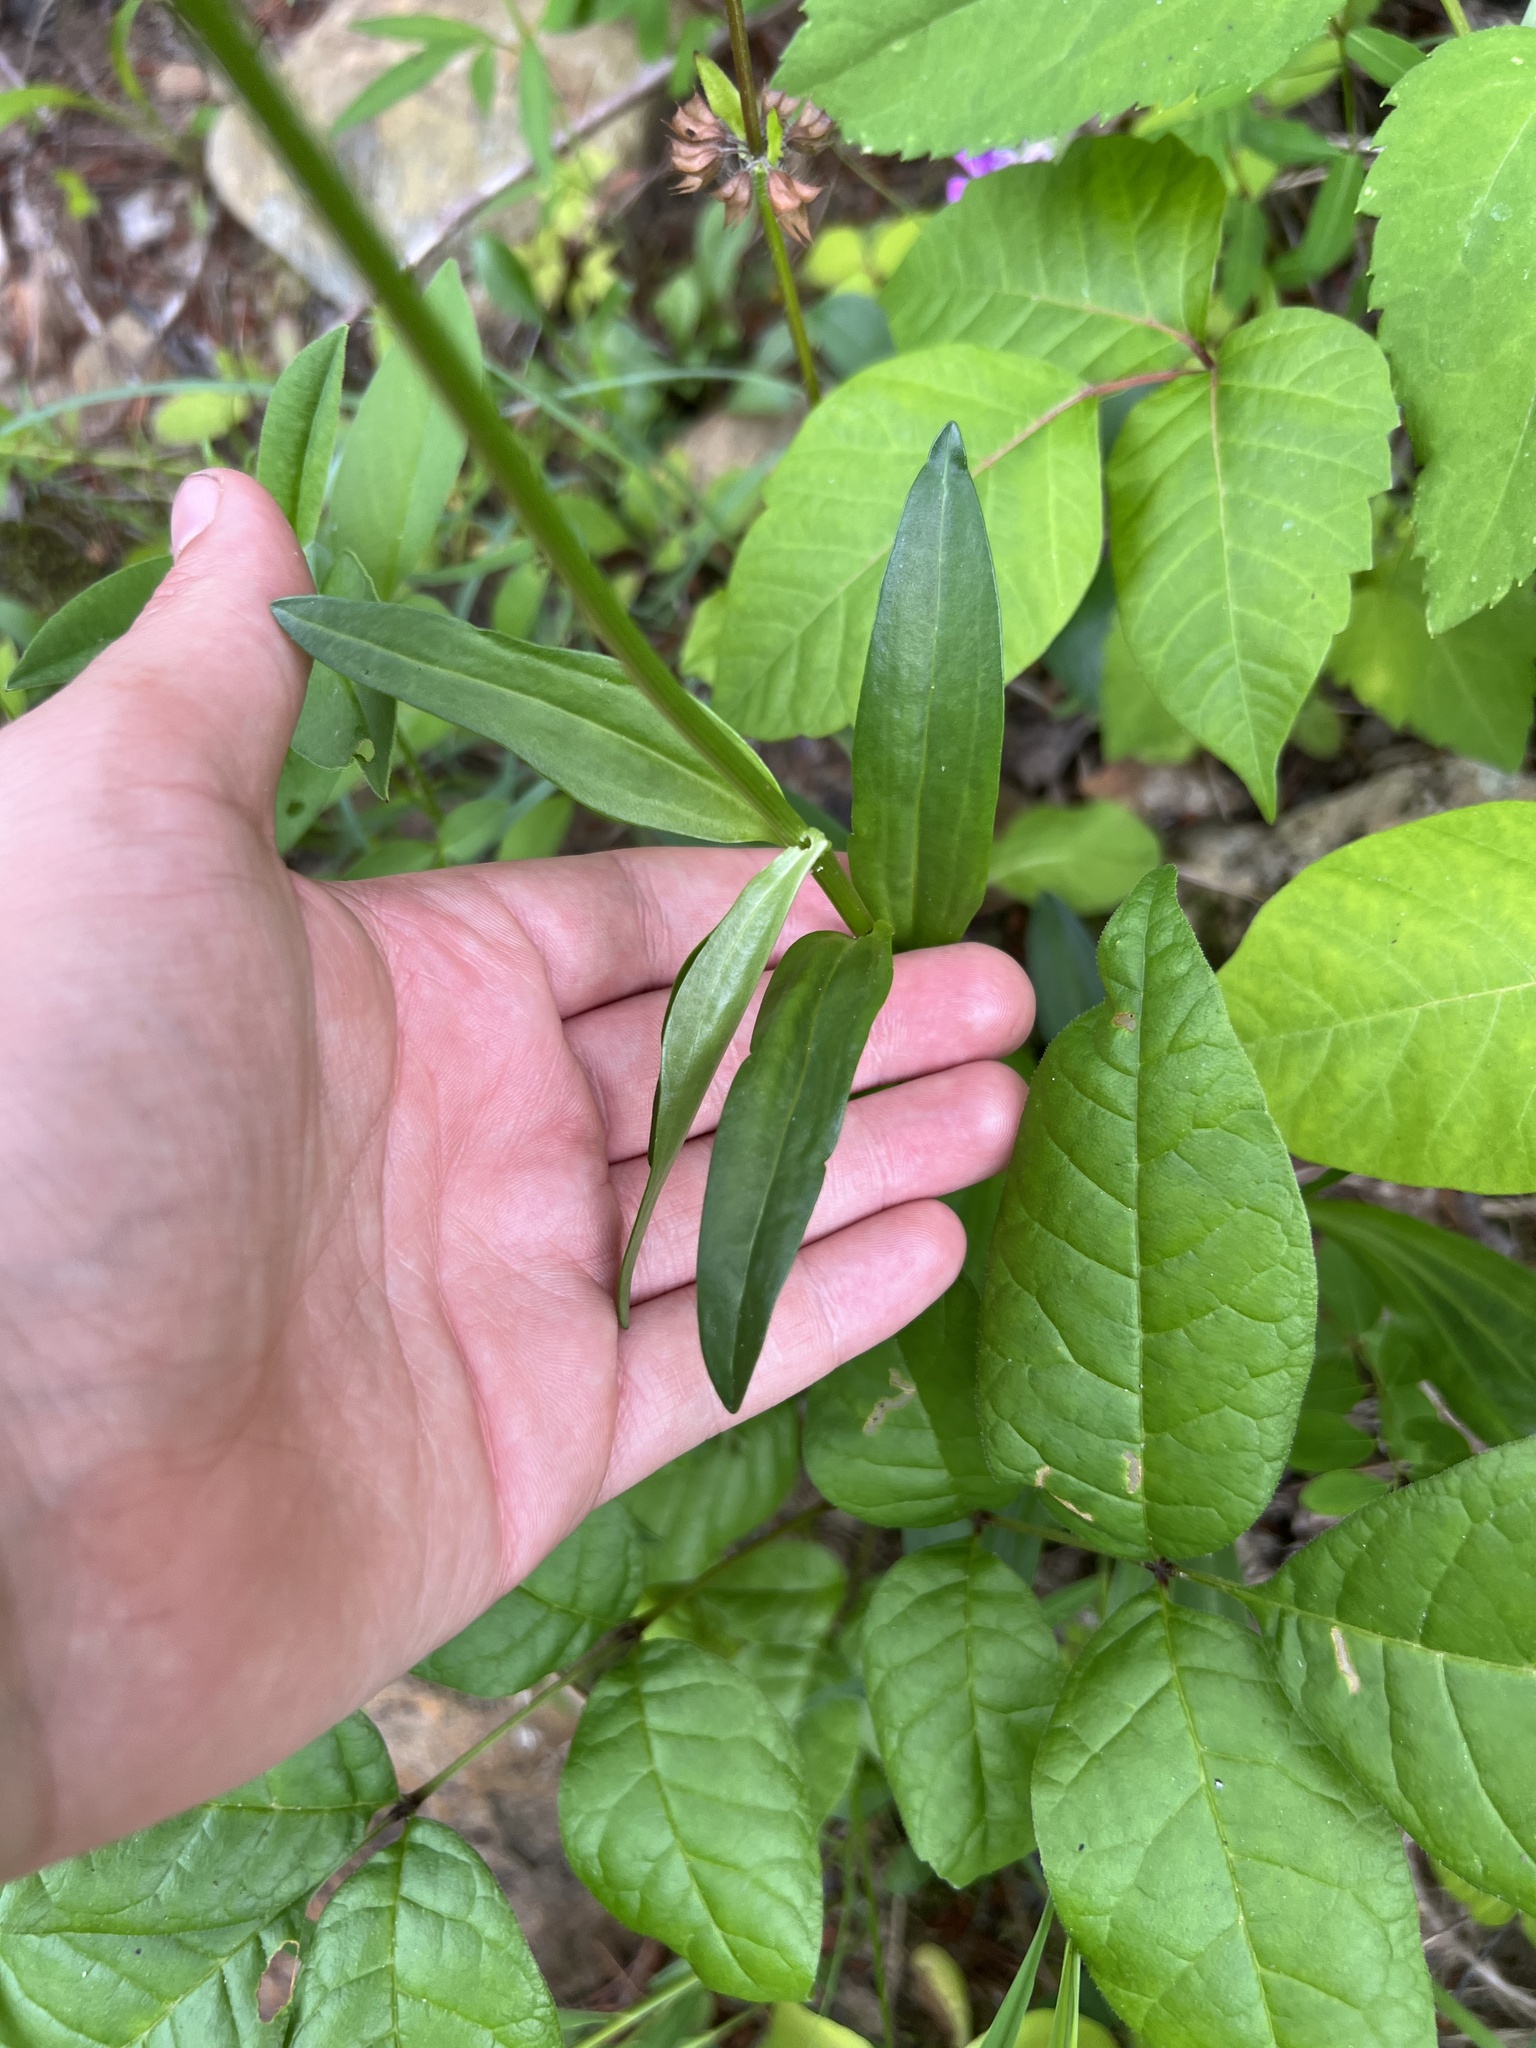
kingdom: Plantae
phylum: Tracheophyta
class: Magnoliopsida
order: Asterales
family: Asteraceae
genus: Marshallia
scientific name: Marshallia pulchra
